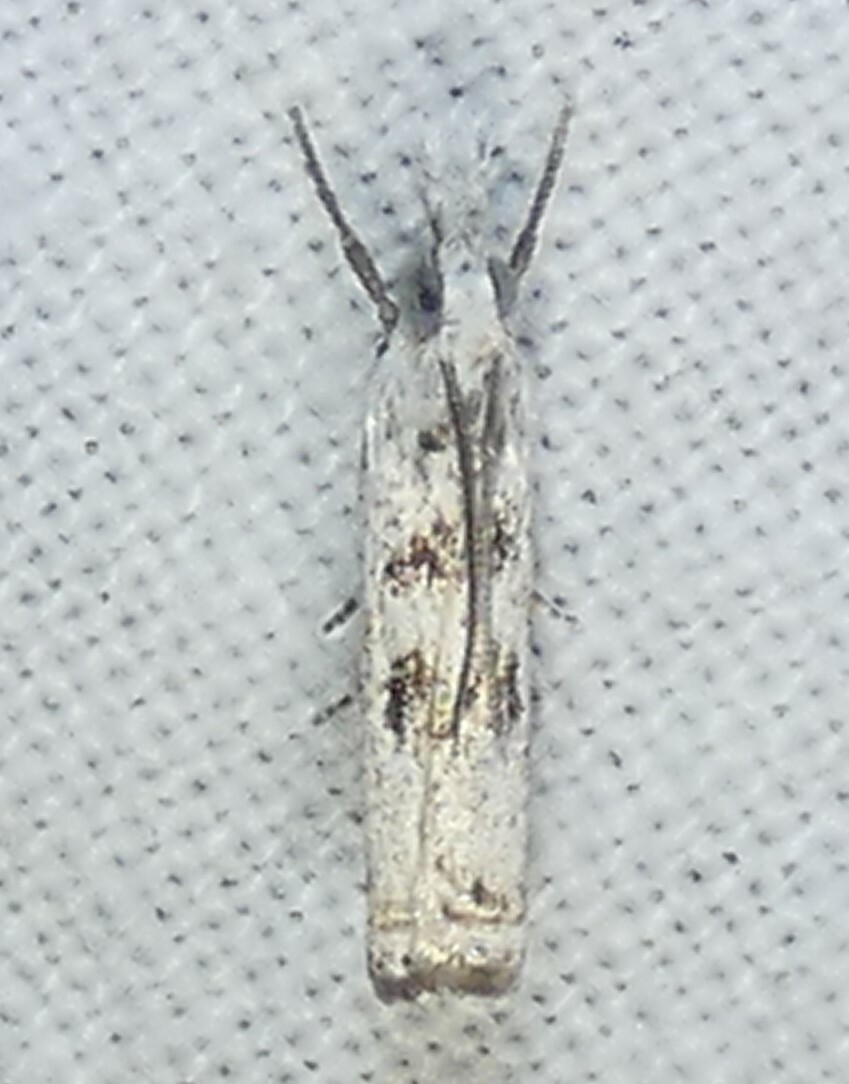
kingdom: Animalia
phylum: Arthropoda
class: Insecta
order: Lepidoptera
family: Crambidae
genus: Microcrambus
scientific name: Microcrambus immunellus
